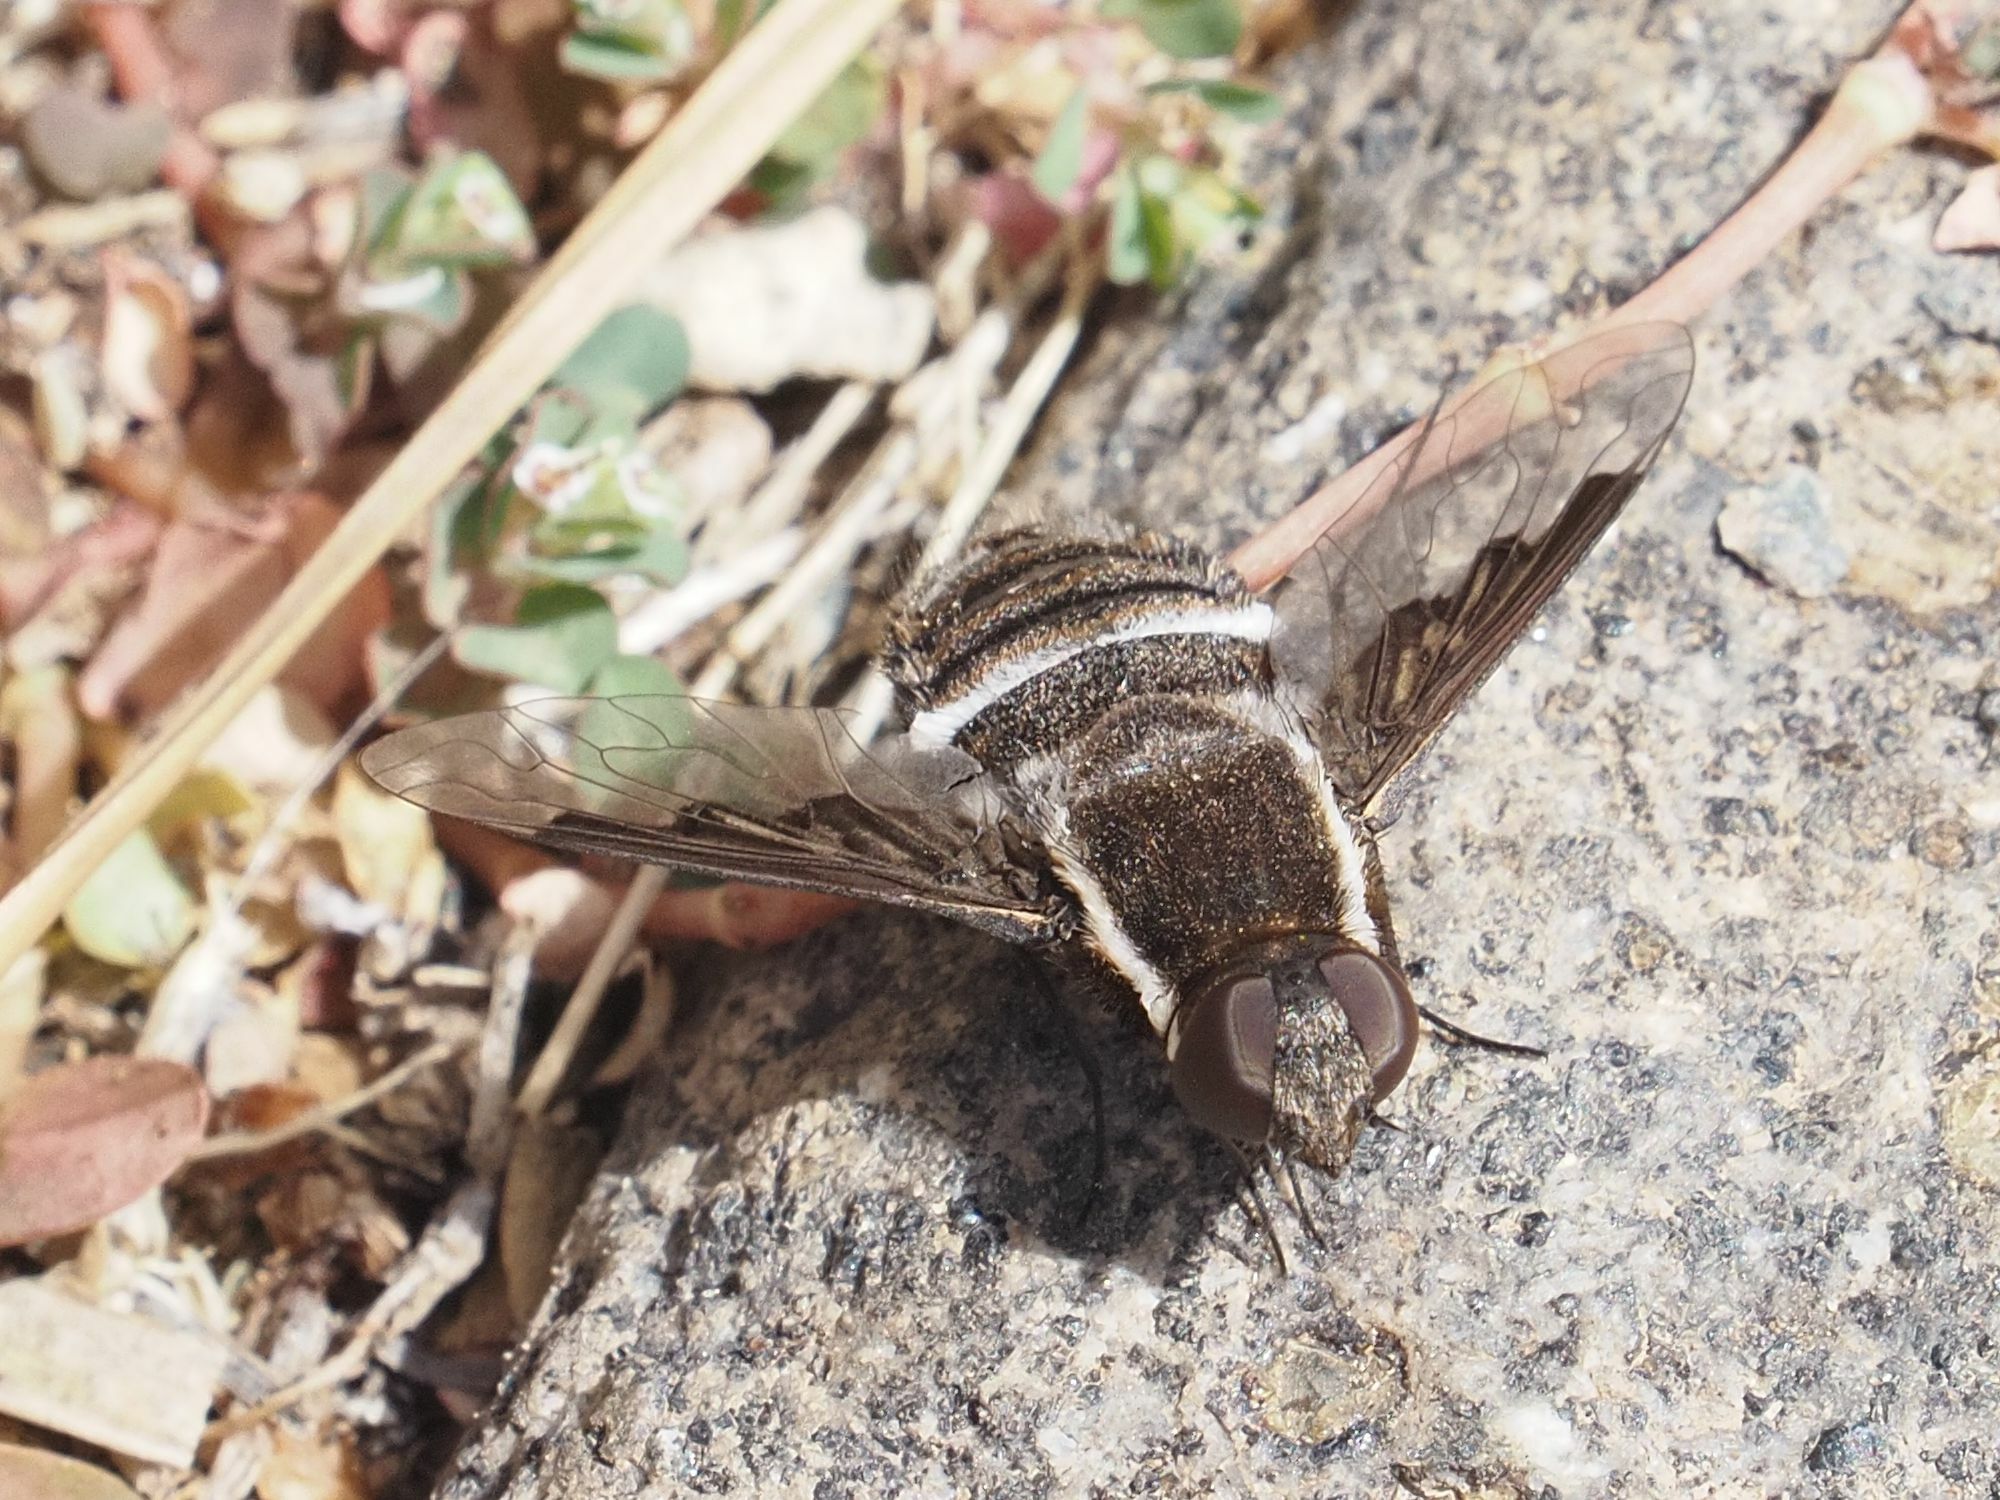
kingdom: Animalia
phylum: Arthropoda
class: Insecta
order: Diptera
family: Bombyliidae
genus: Exhyalanthrax
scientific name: Exhyalanthrax canarionae
